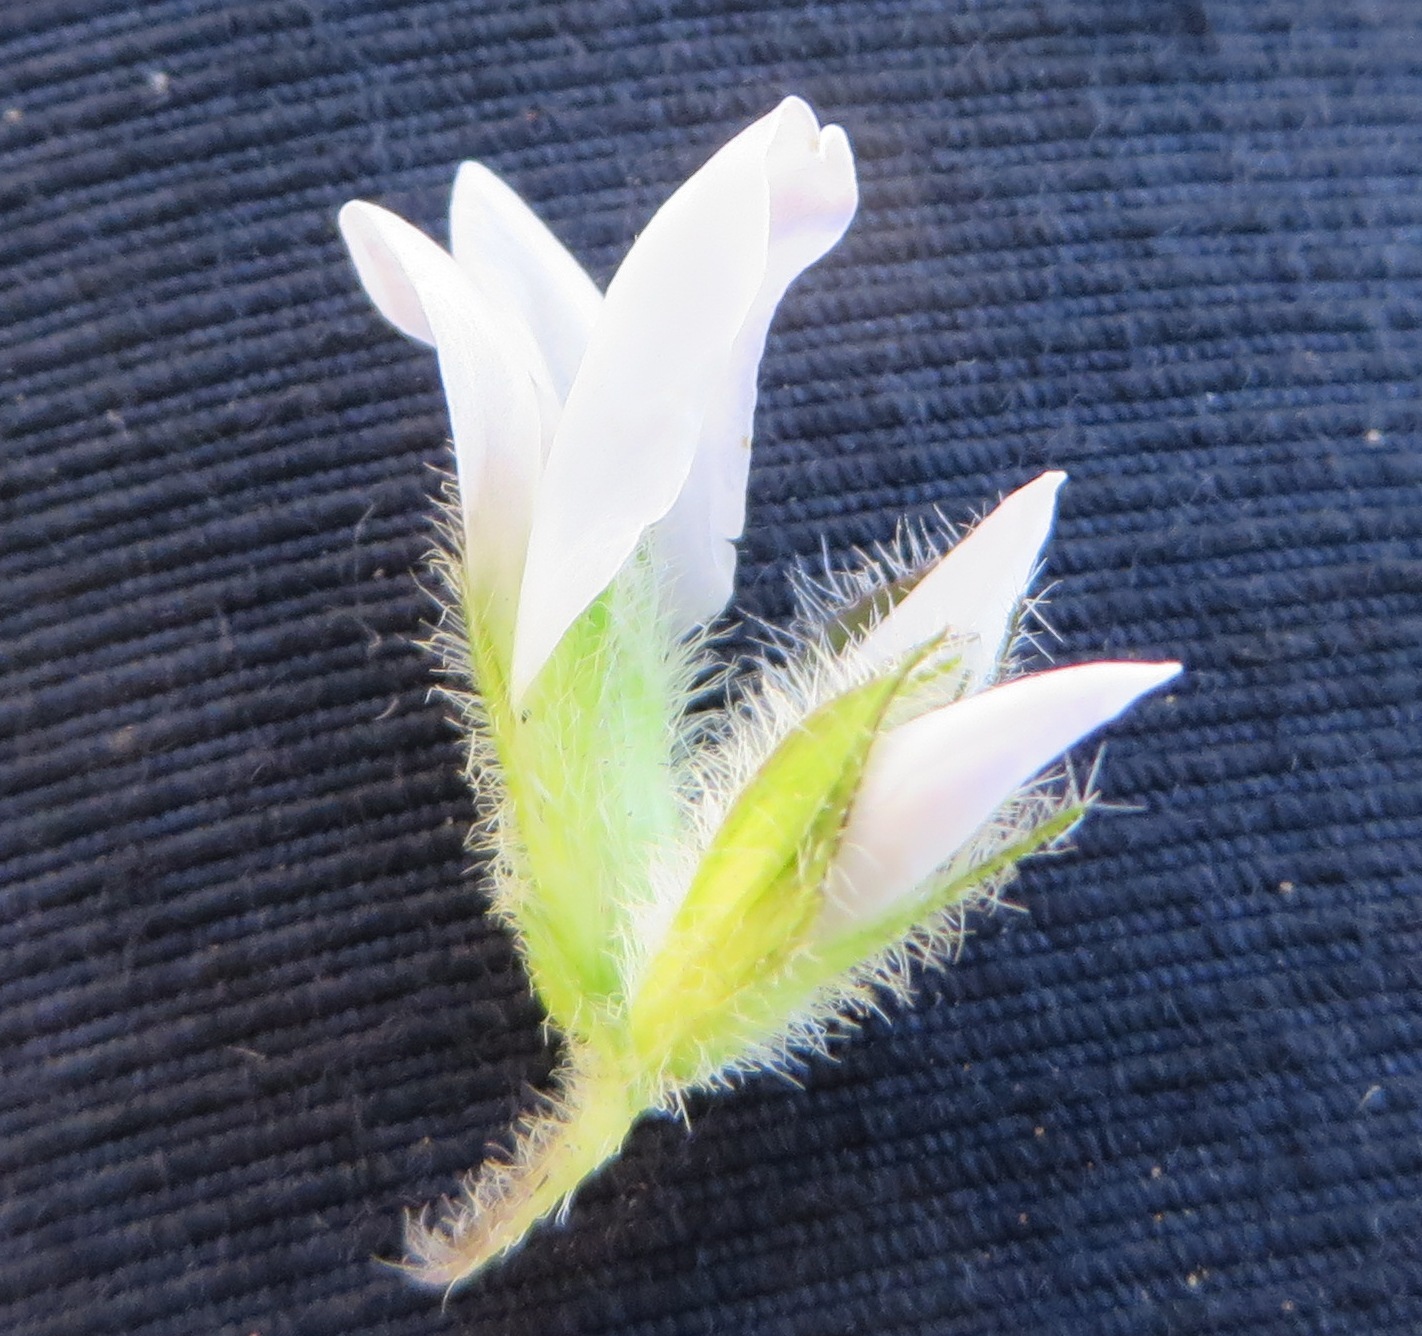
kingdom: Plantae
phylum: Tracheophyta
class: Magnoliopsida
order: Fabales
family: Fabaceae
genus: Psoralea
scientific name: Psoralea zeyheri
